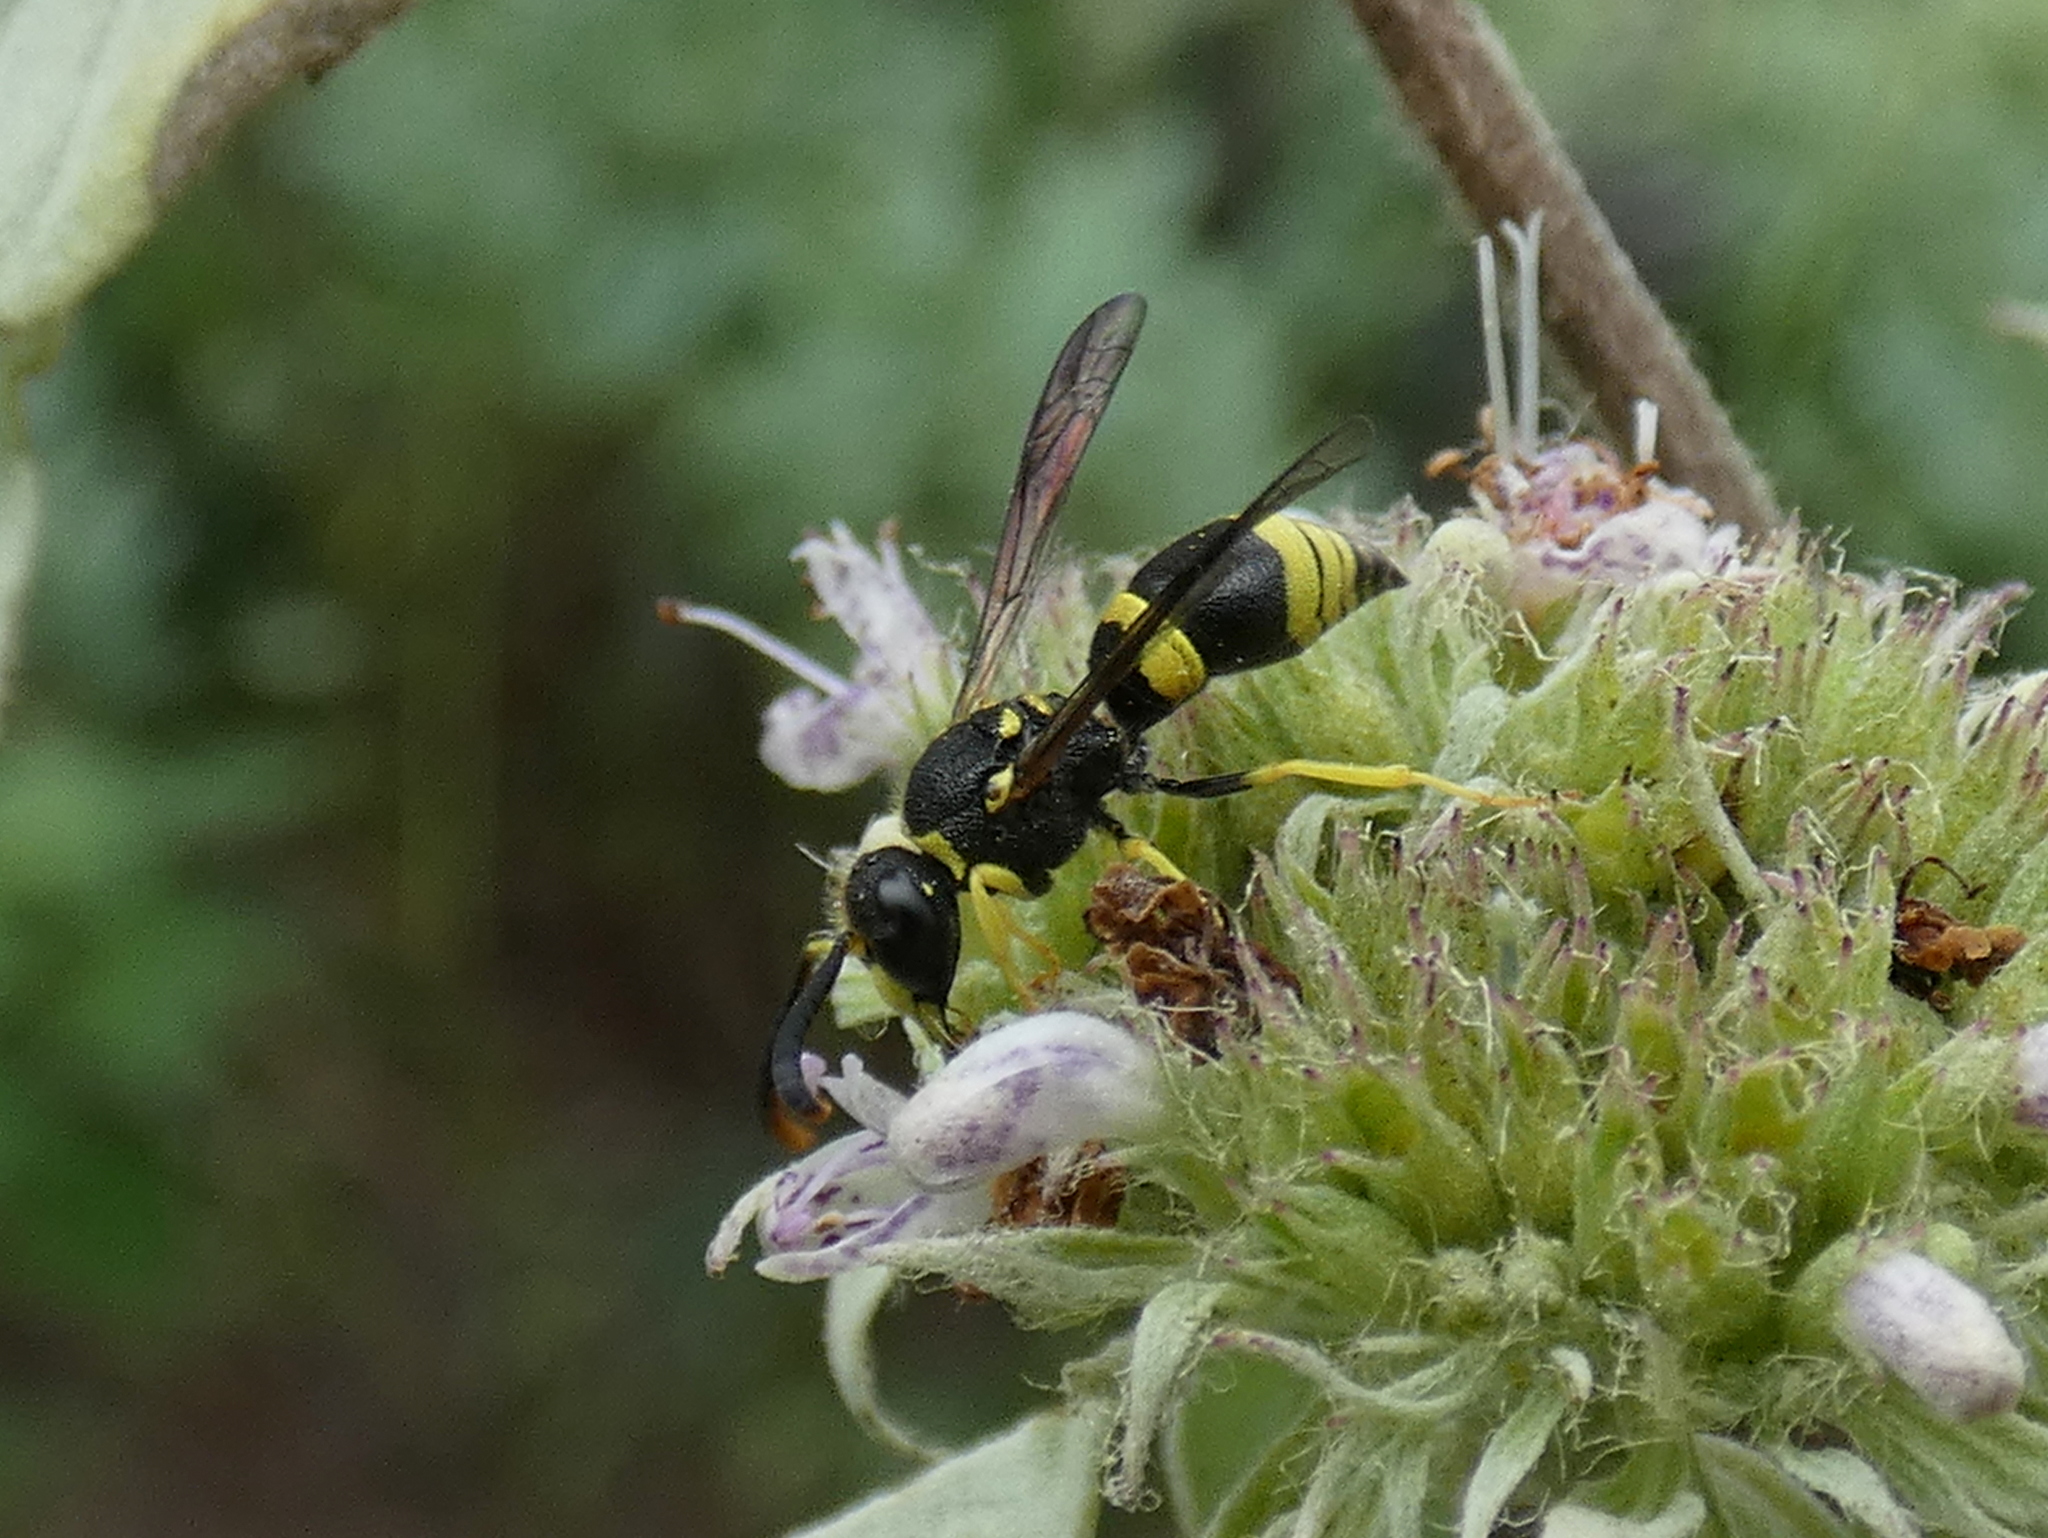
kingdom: Animalia
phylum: Arthropoda
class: Insecta
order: Hymenoptera
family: Vespidae
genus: Ancistrocerus
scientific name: Ancistrocerus gazella
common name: European tube wasp
